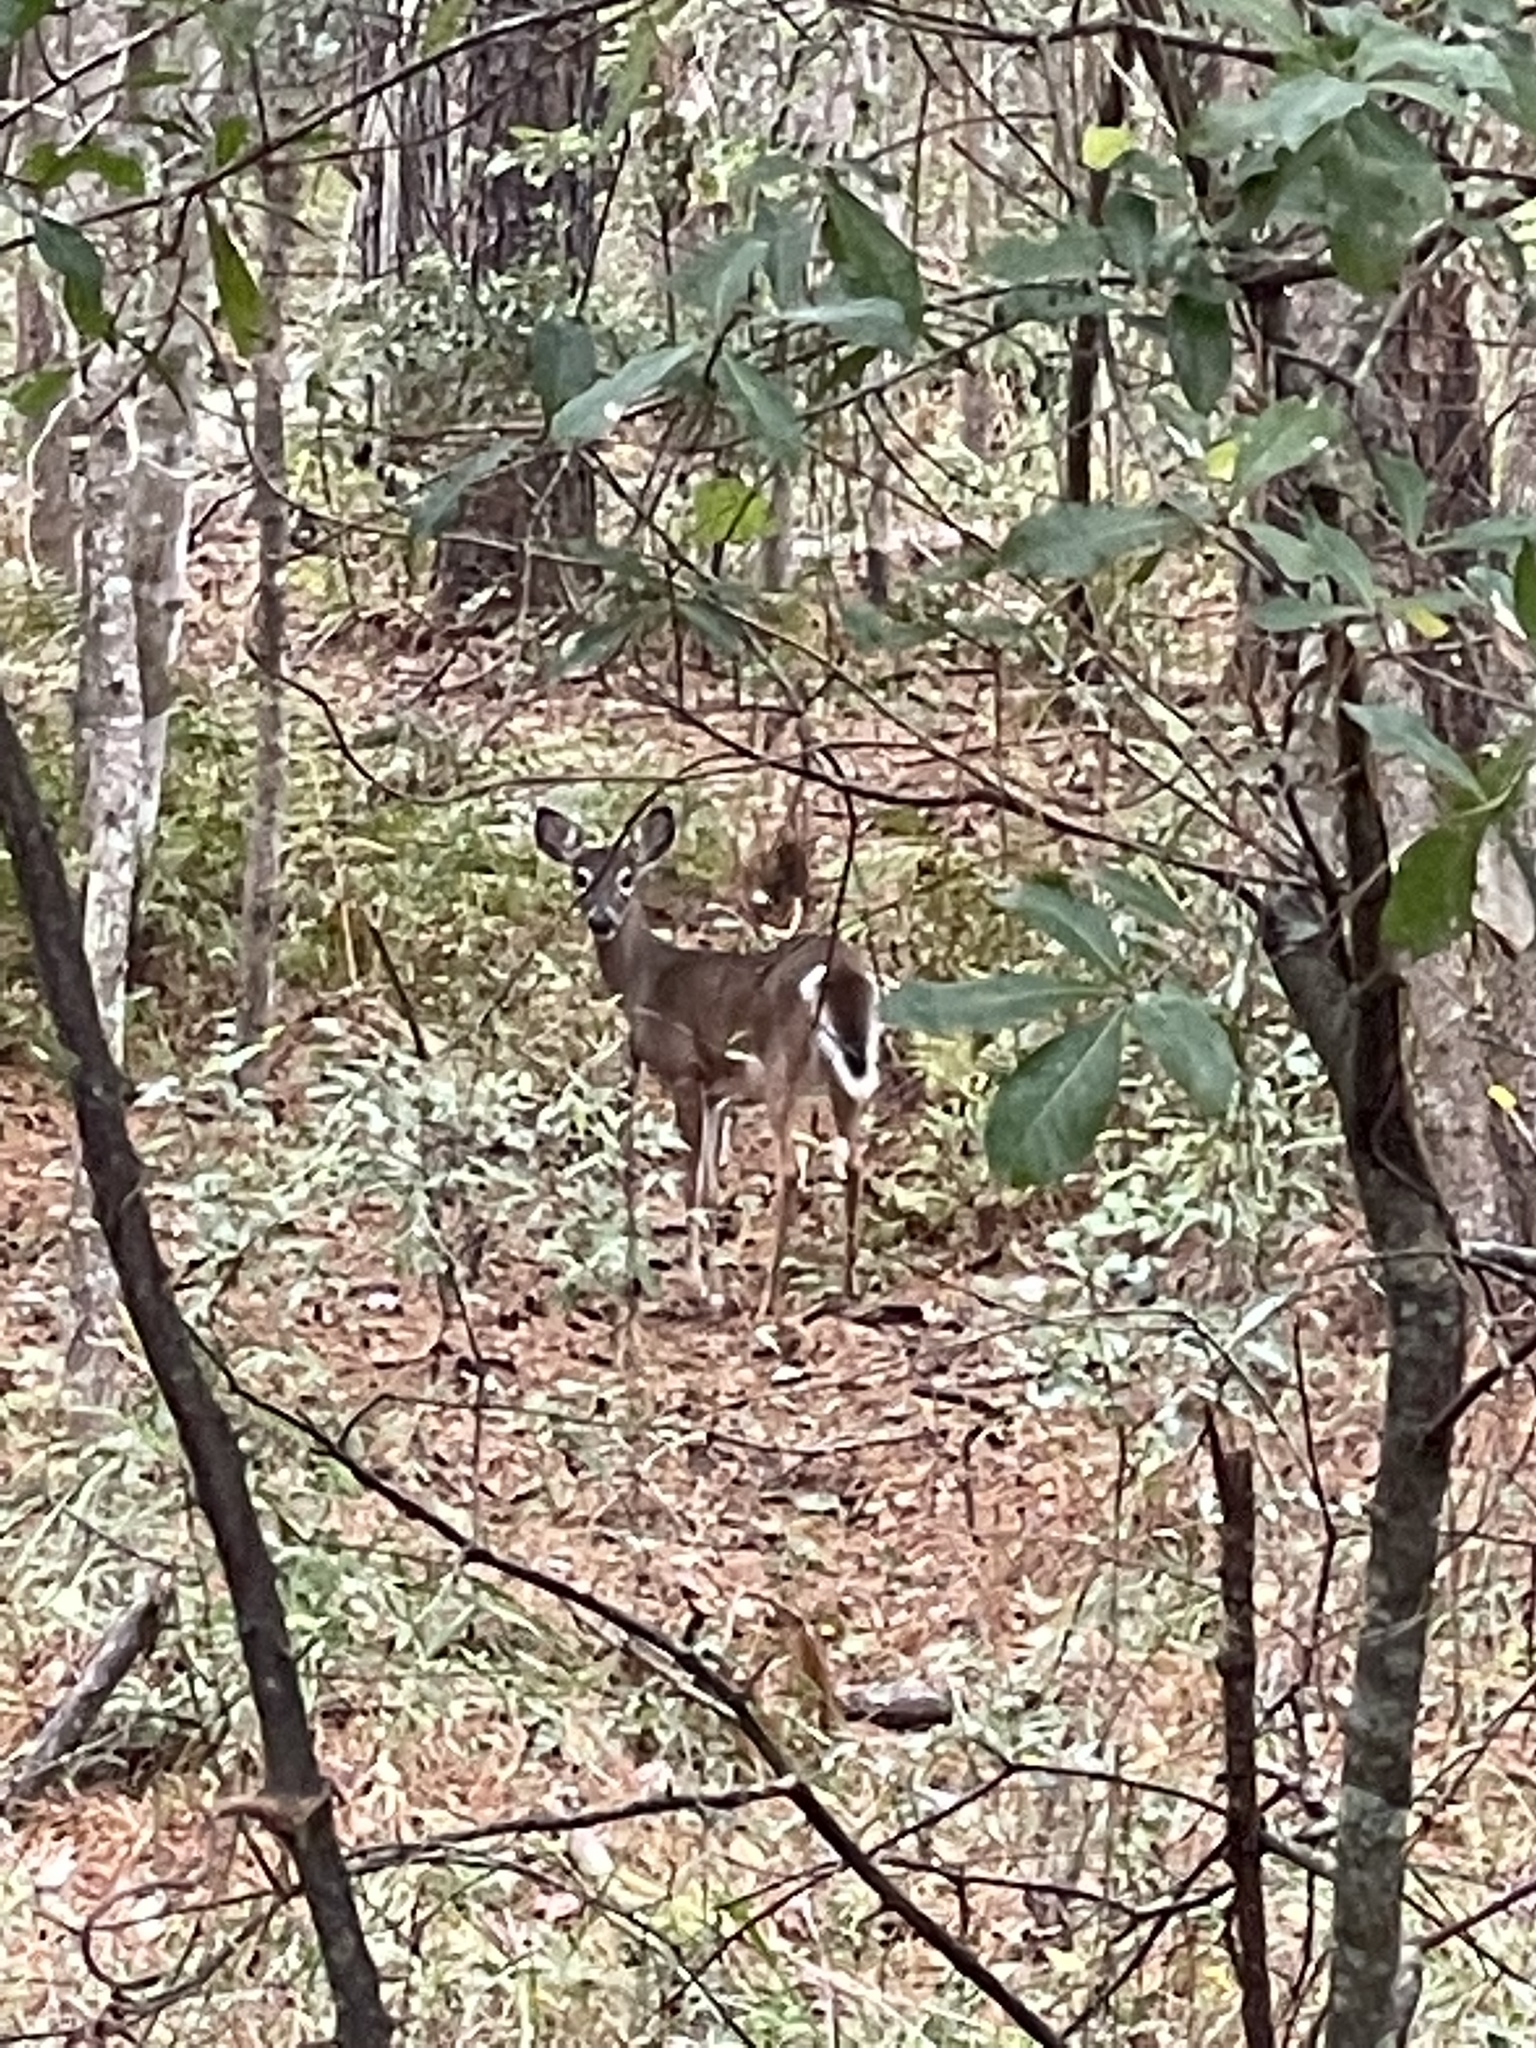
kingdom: Animalia
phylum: Chordata
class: Mammalia
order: Artiodactyla
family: Cervidae
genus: Odocoileus
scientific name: Odocoileus virginianus
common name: White-tailed deer
